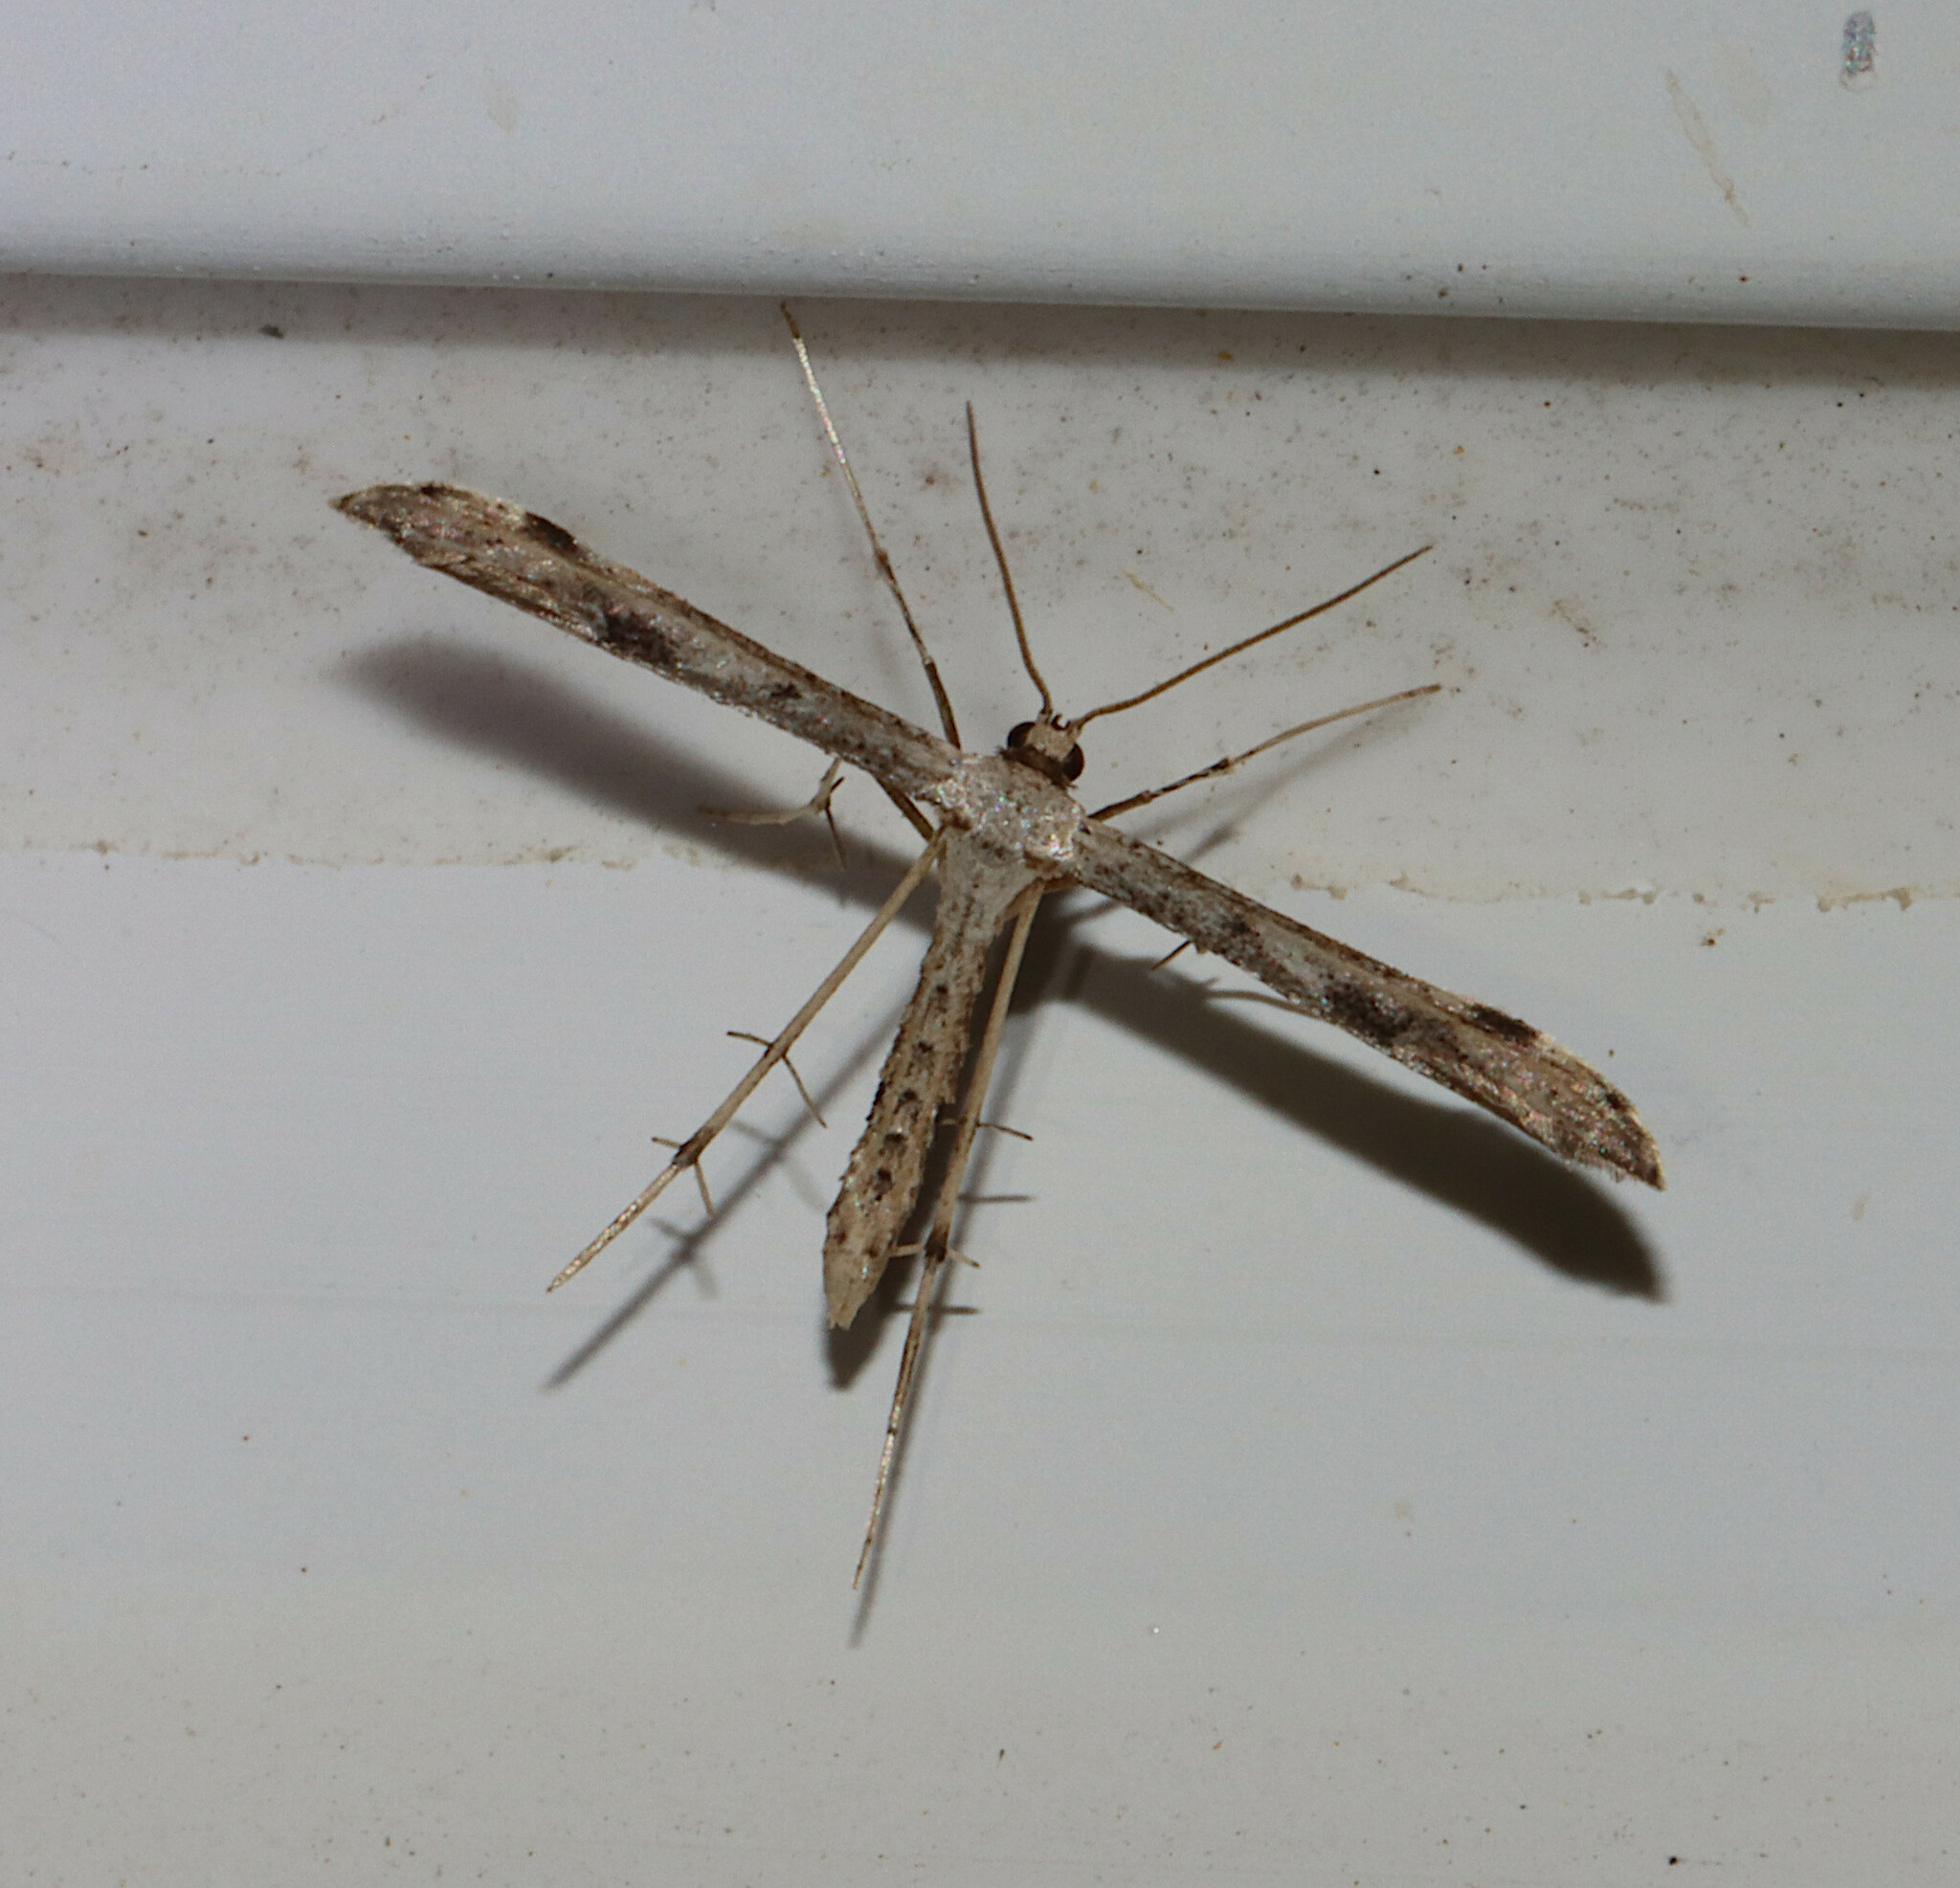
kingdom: Animalia
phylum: Arthropoda
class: Insecta
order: Lepidoptera
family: Pterophoridae
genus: Adaina
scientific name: Adaina ambrosiae
